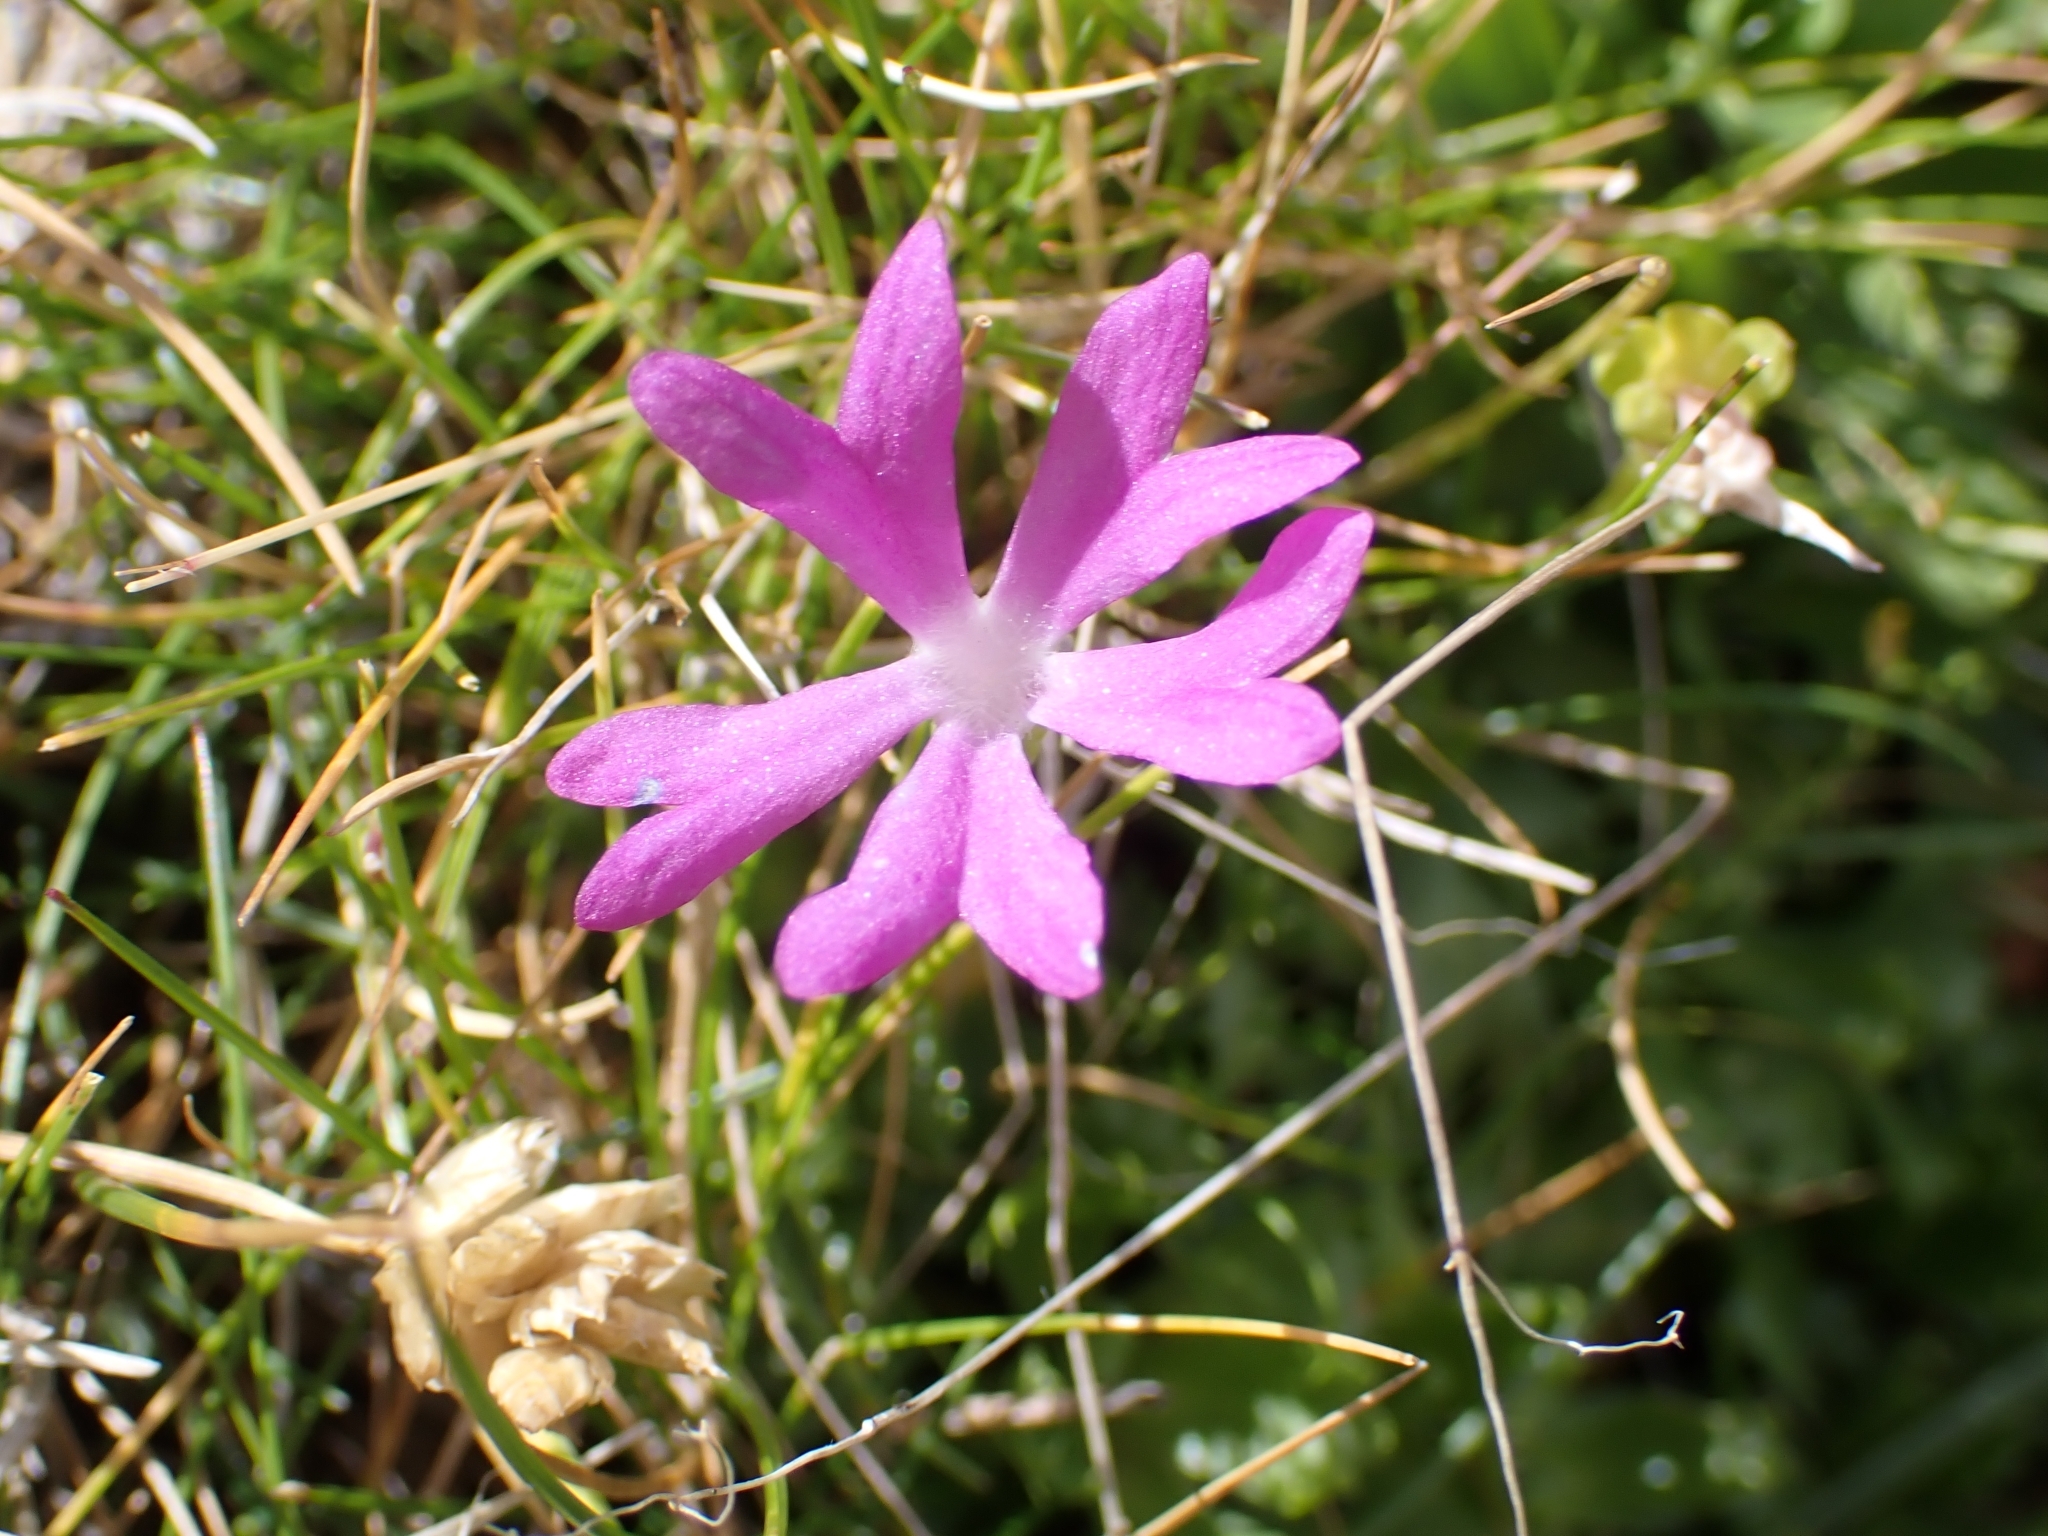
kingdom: Plantae
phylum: Tracheophyta
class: Magnoliopsida
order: Ericales
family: Primulaceae
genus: Primula
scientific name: Primula minima
